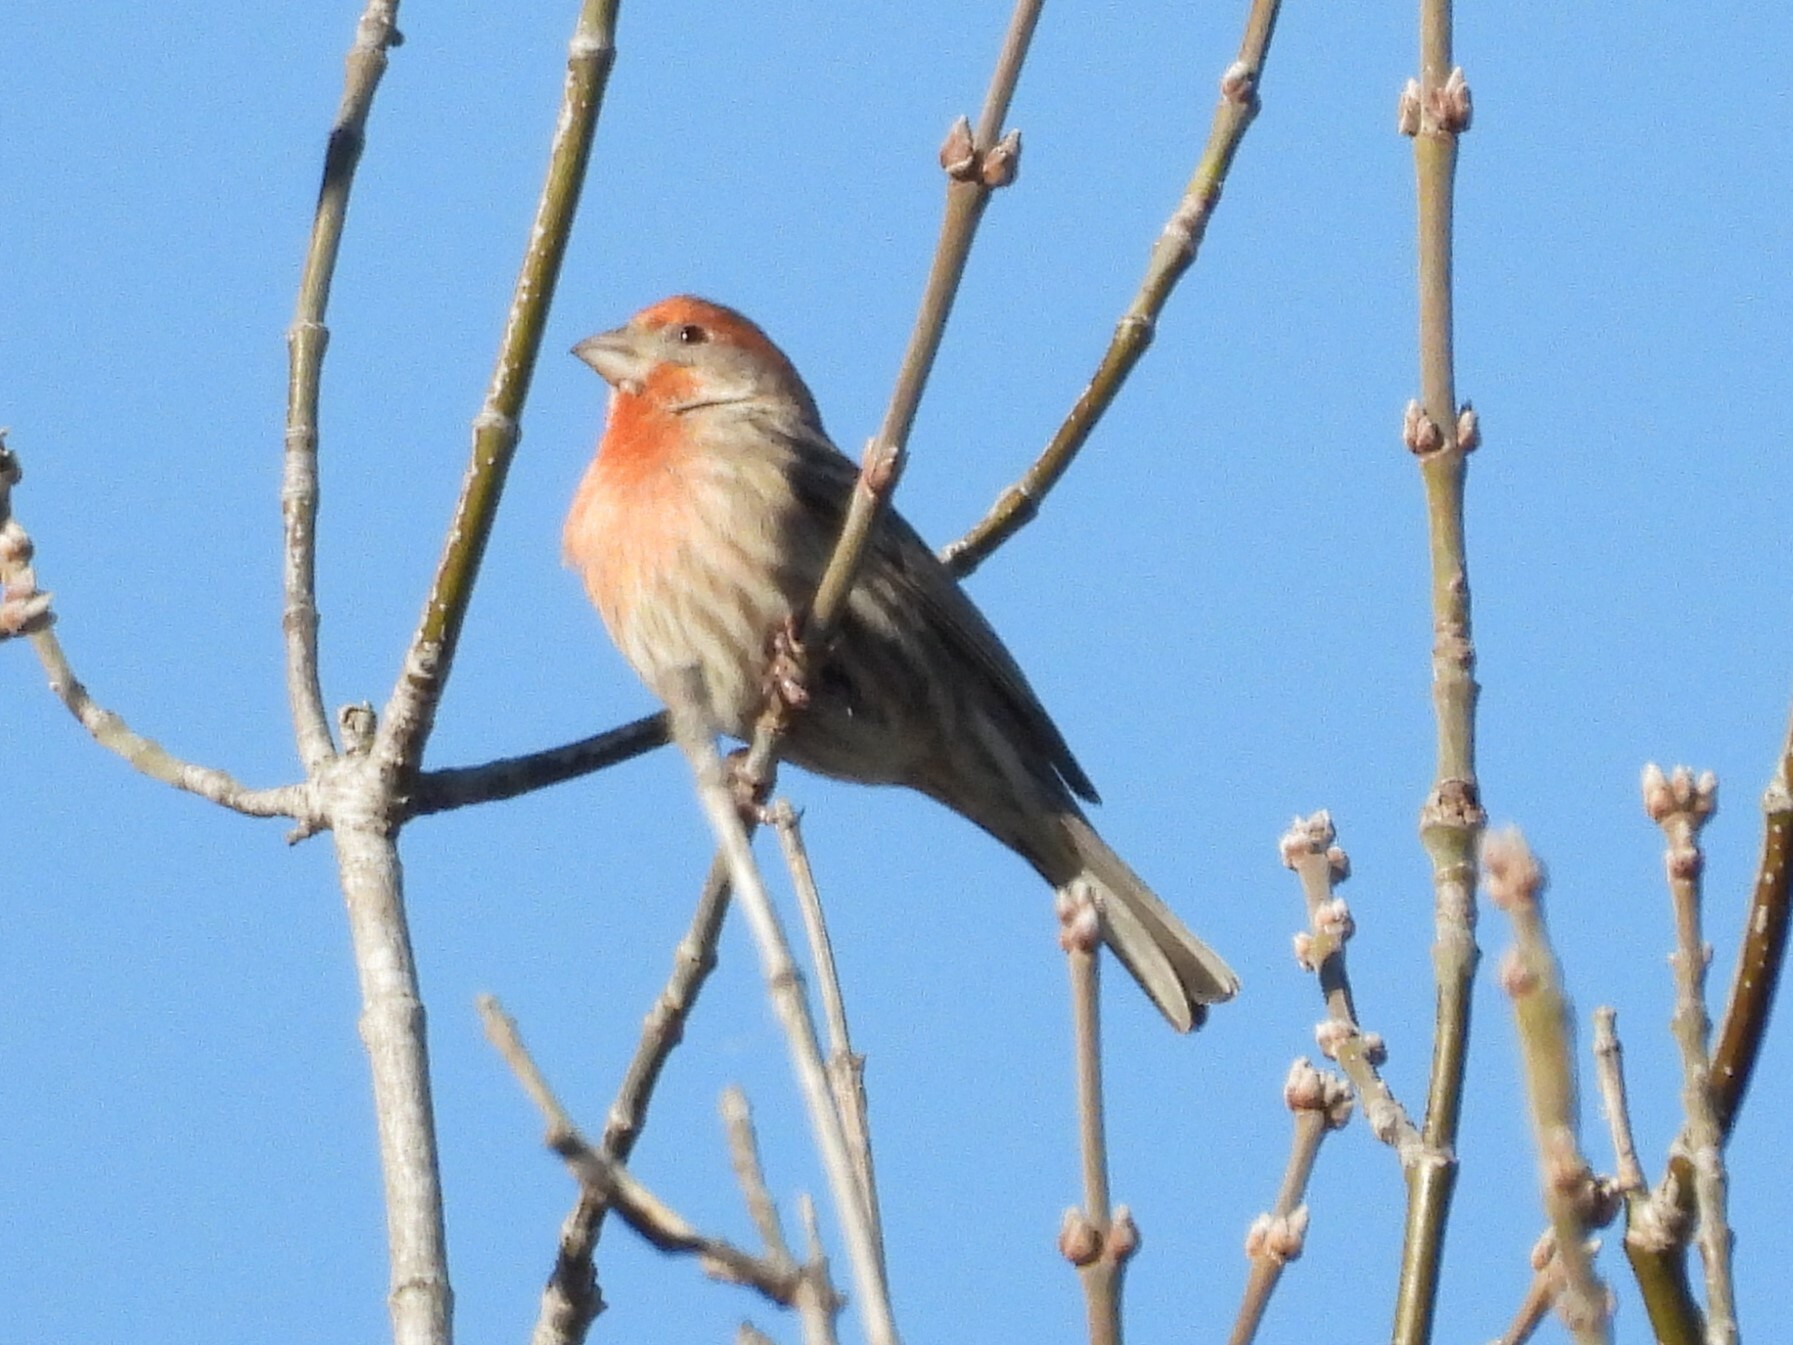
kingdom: Animalia
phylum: Chordata
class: Aves
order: Passeriformes
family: Fringillidae
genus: Haemorhous
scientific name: Haemorhous mexicanus
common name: House finch
